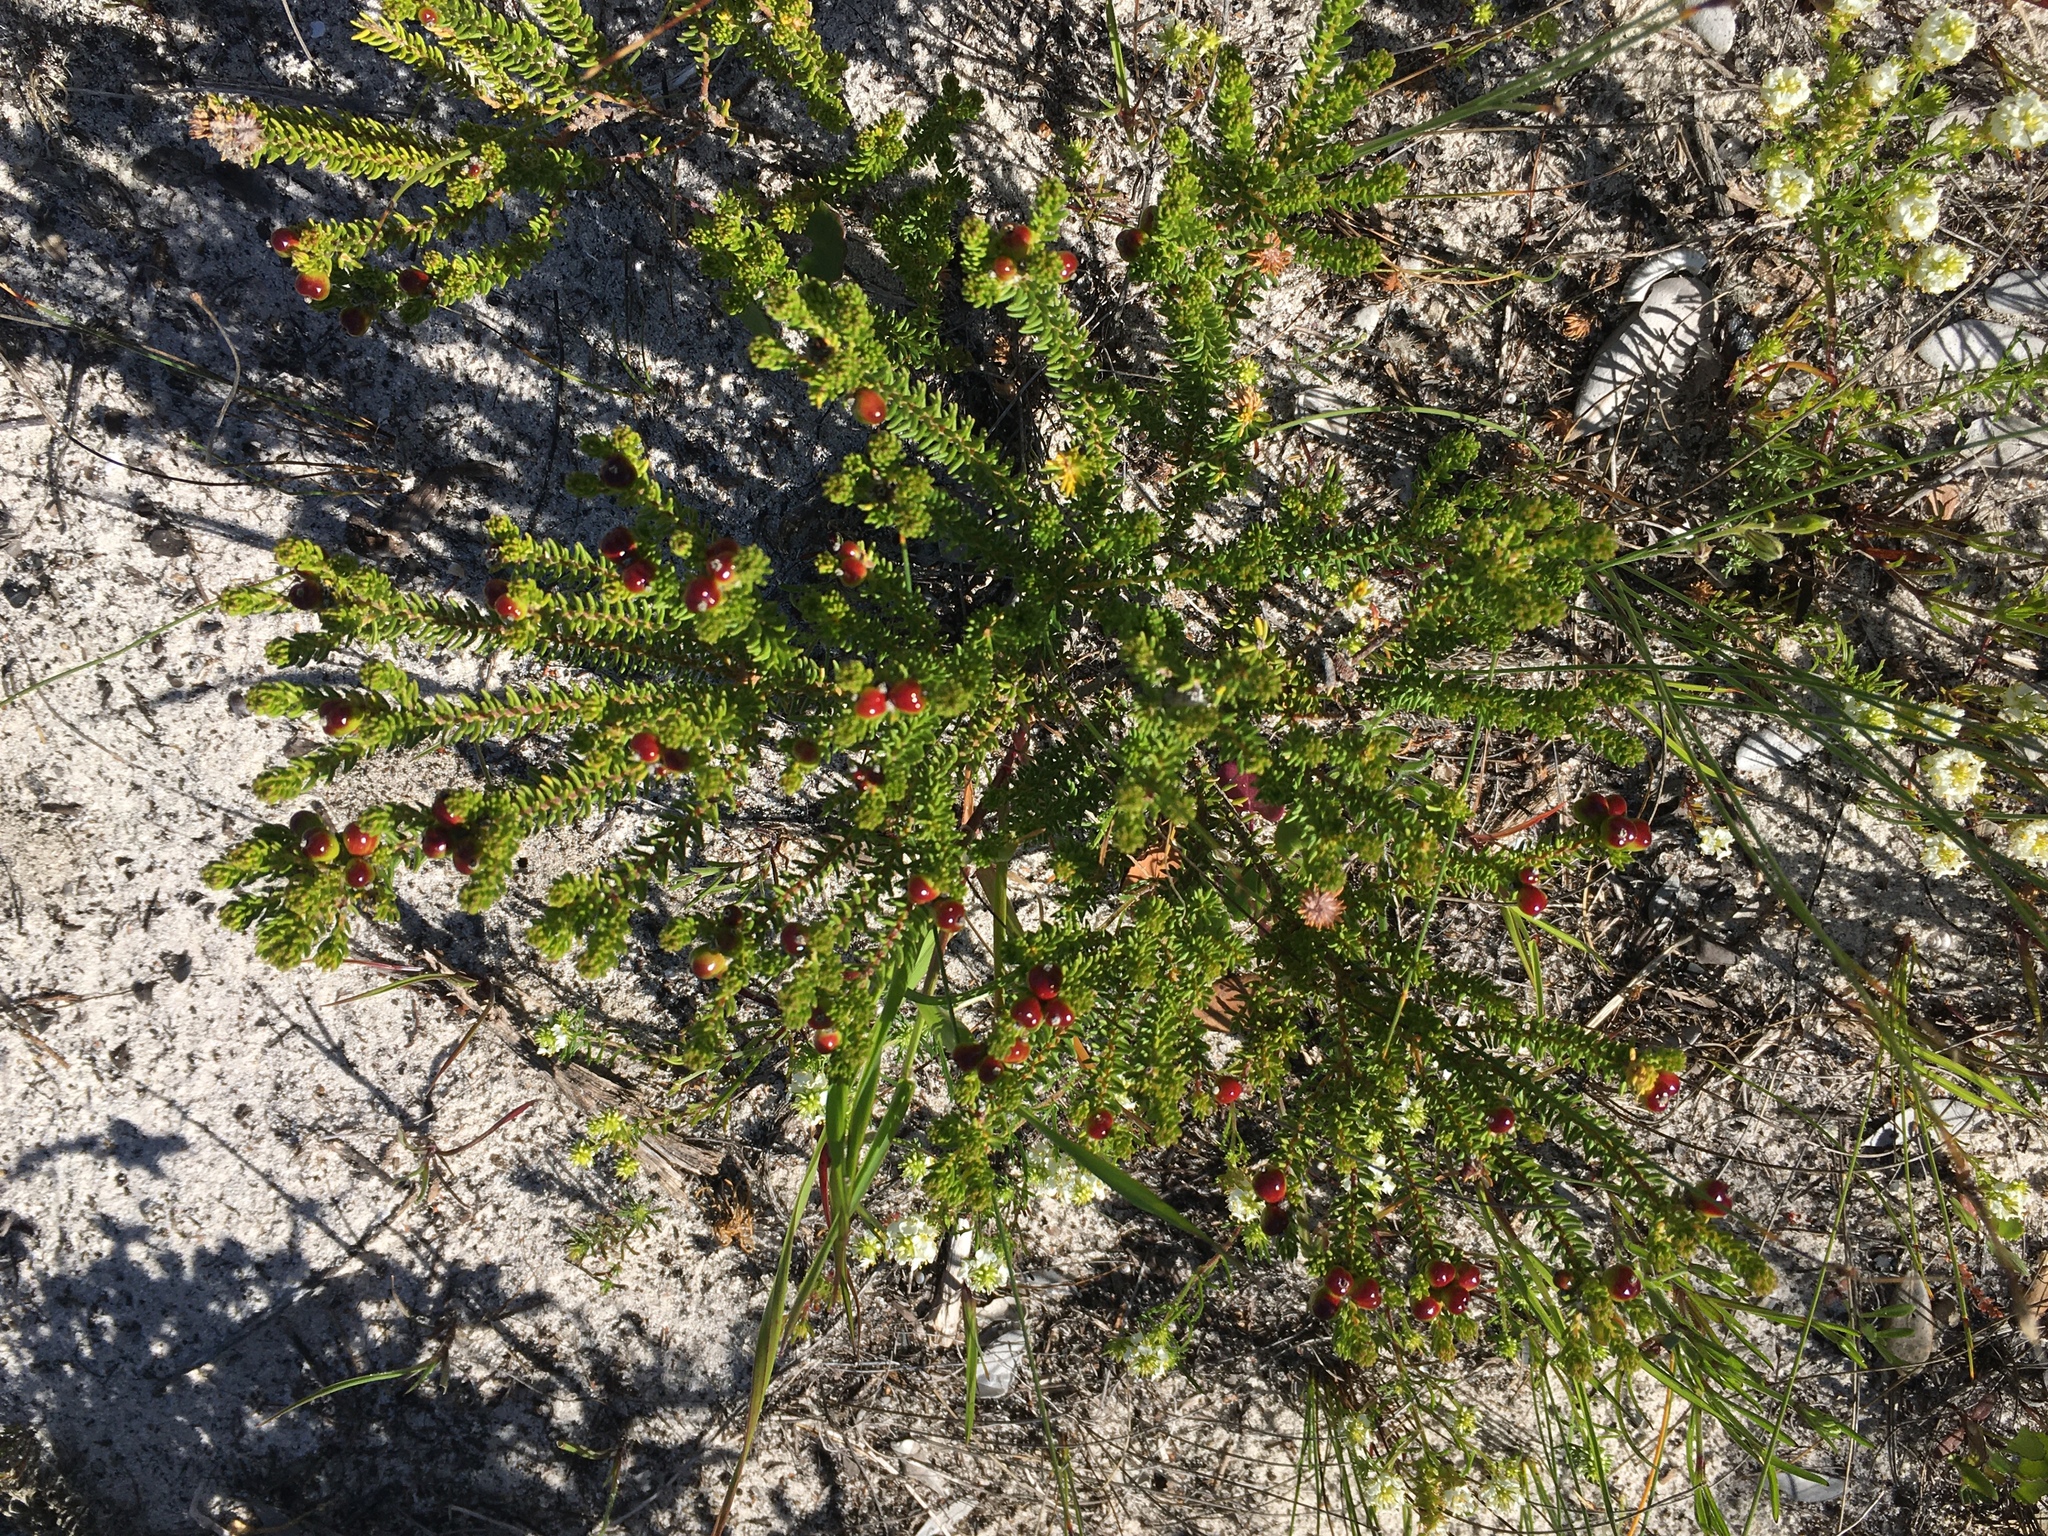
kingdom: Plantae
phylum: Tracheophyta
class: Magnoliopsida
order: Rosales
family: Rhamnaceae
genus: Phylica
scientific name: Phylica ericoides
